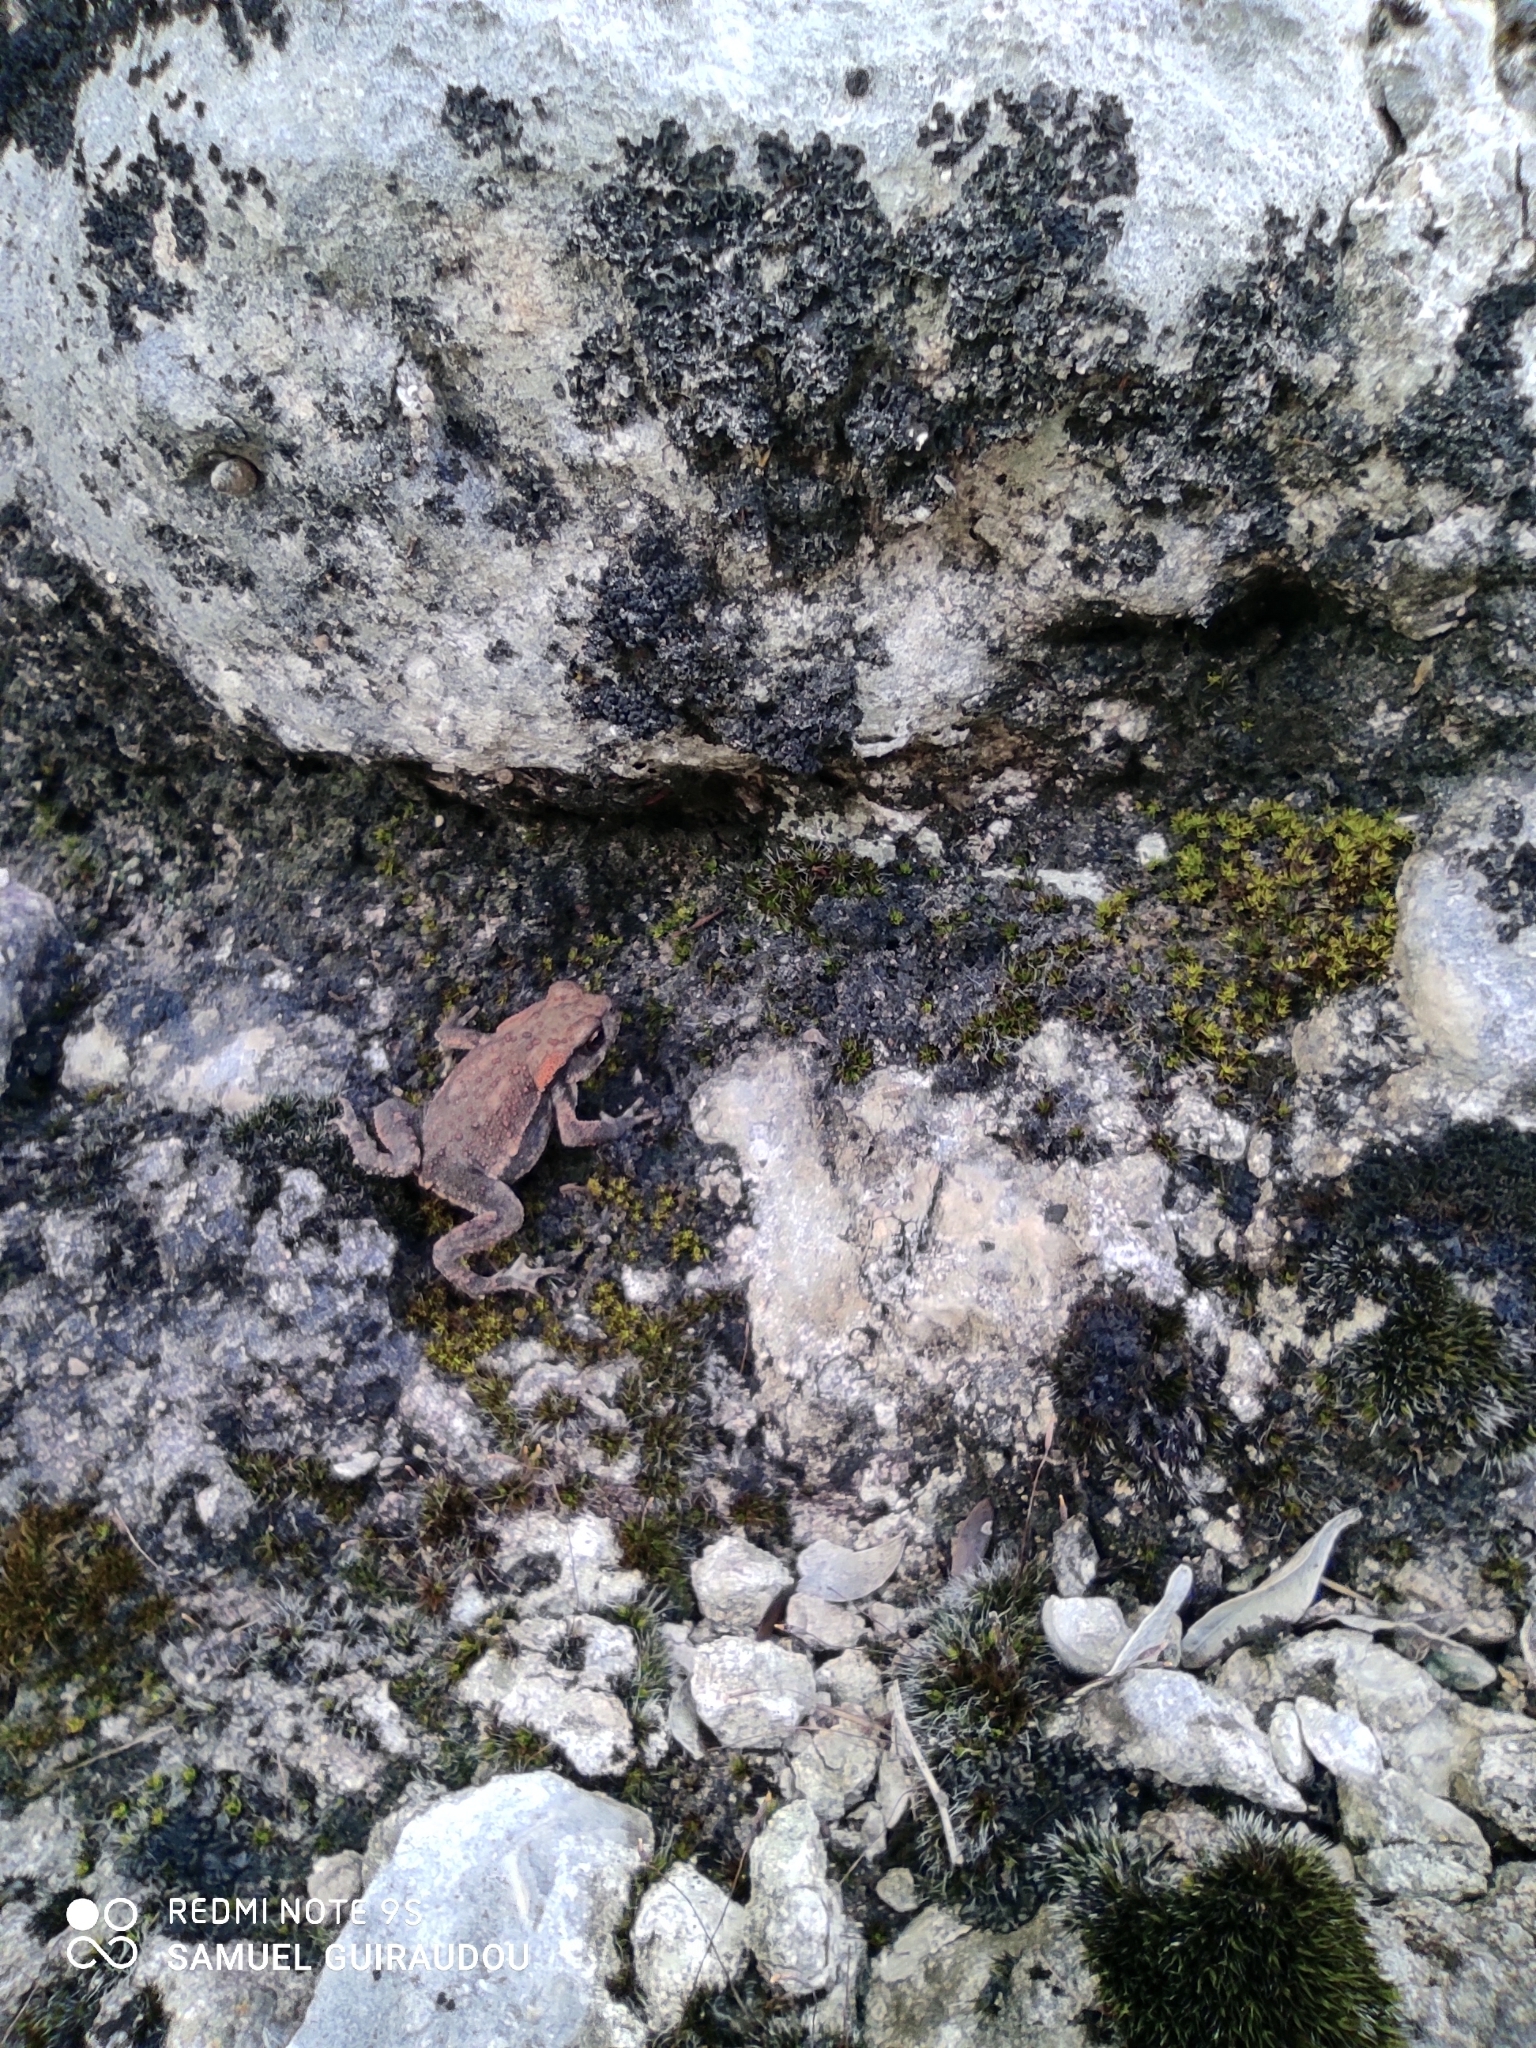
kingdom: Animalia
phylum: Chordata
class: Amphibia
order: Anura
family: Bufonidae
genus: Bufo
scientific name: Bufo spinosus
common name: Western common toad
